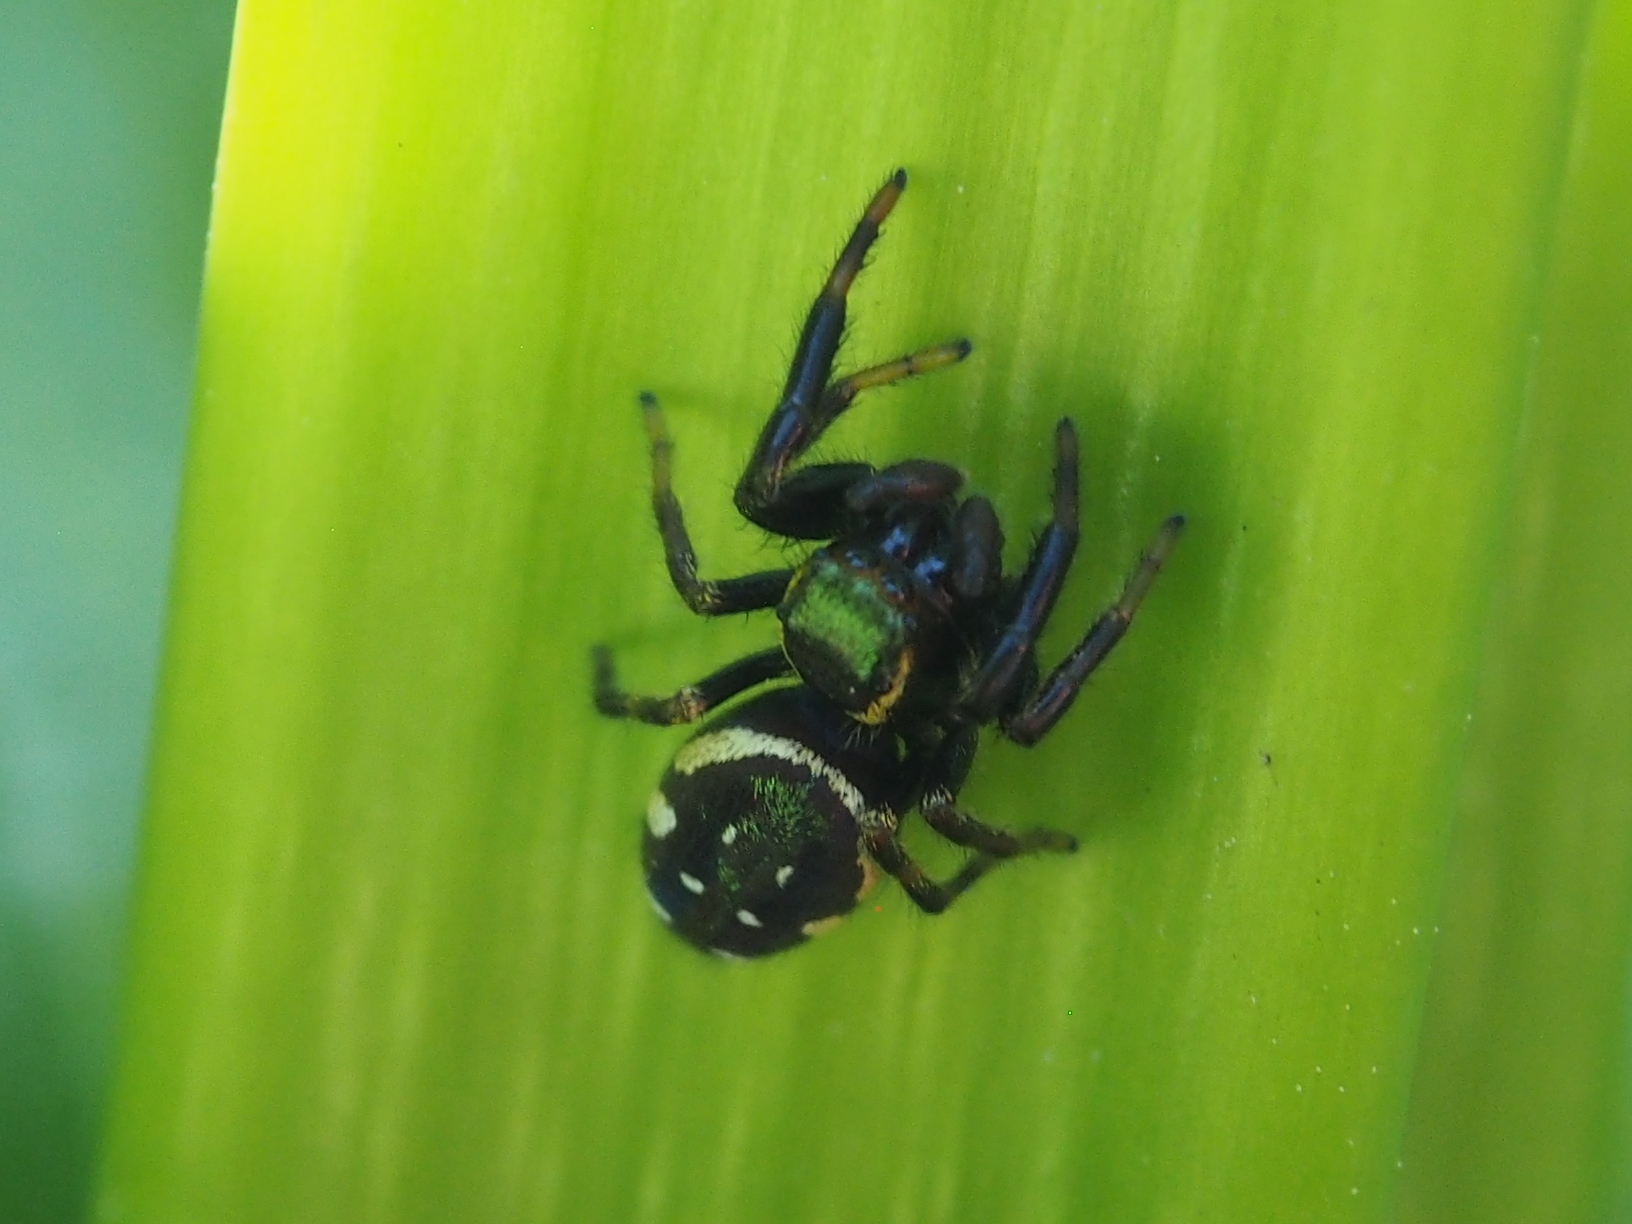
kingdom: Animalia
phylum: Arthropoda
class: Arachnida
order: Araneae
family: Salticidae
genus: Paraphidippus
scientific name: Paraphidippus aurantius
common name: Jumping spiders
